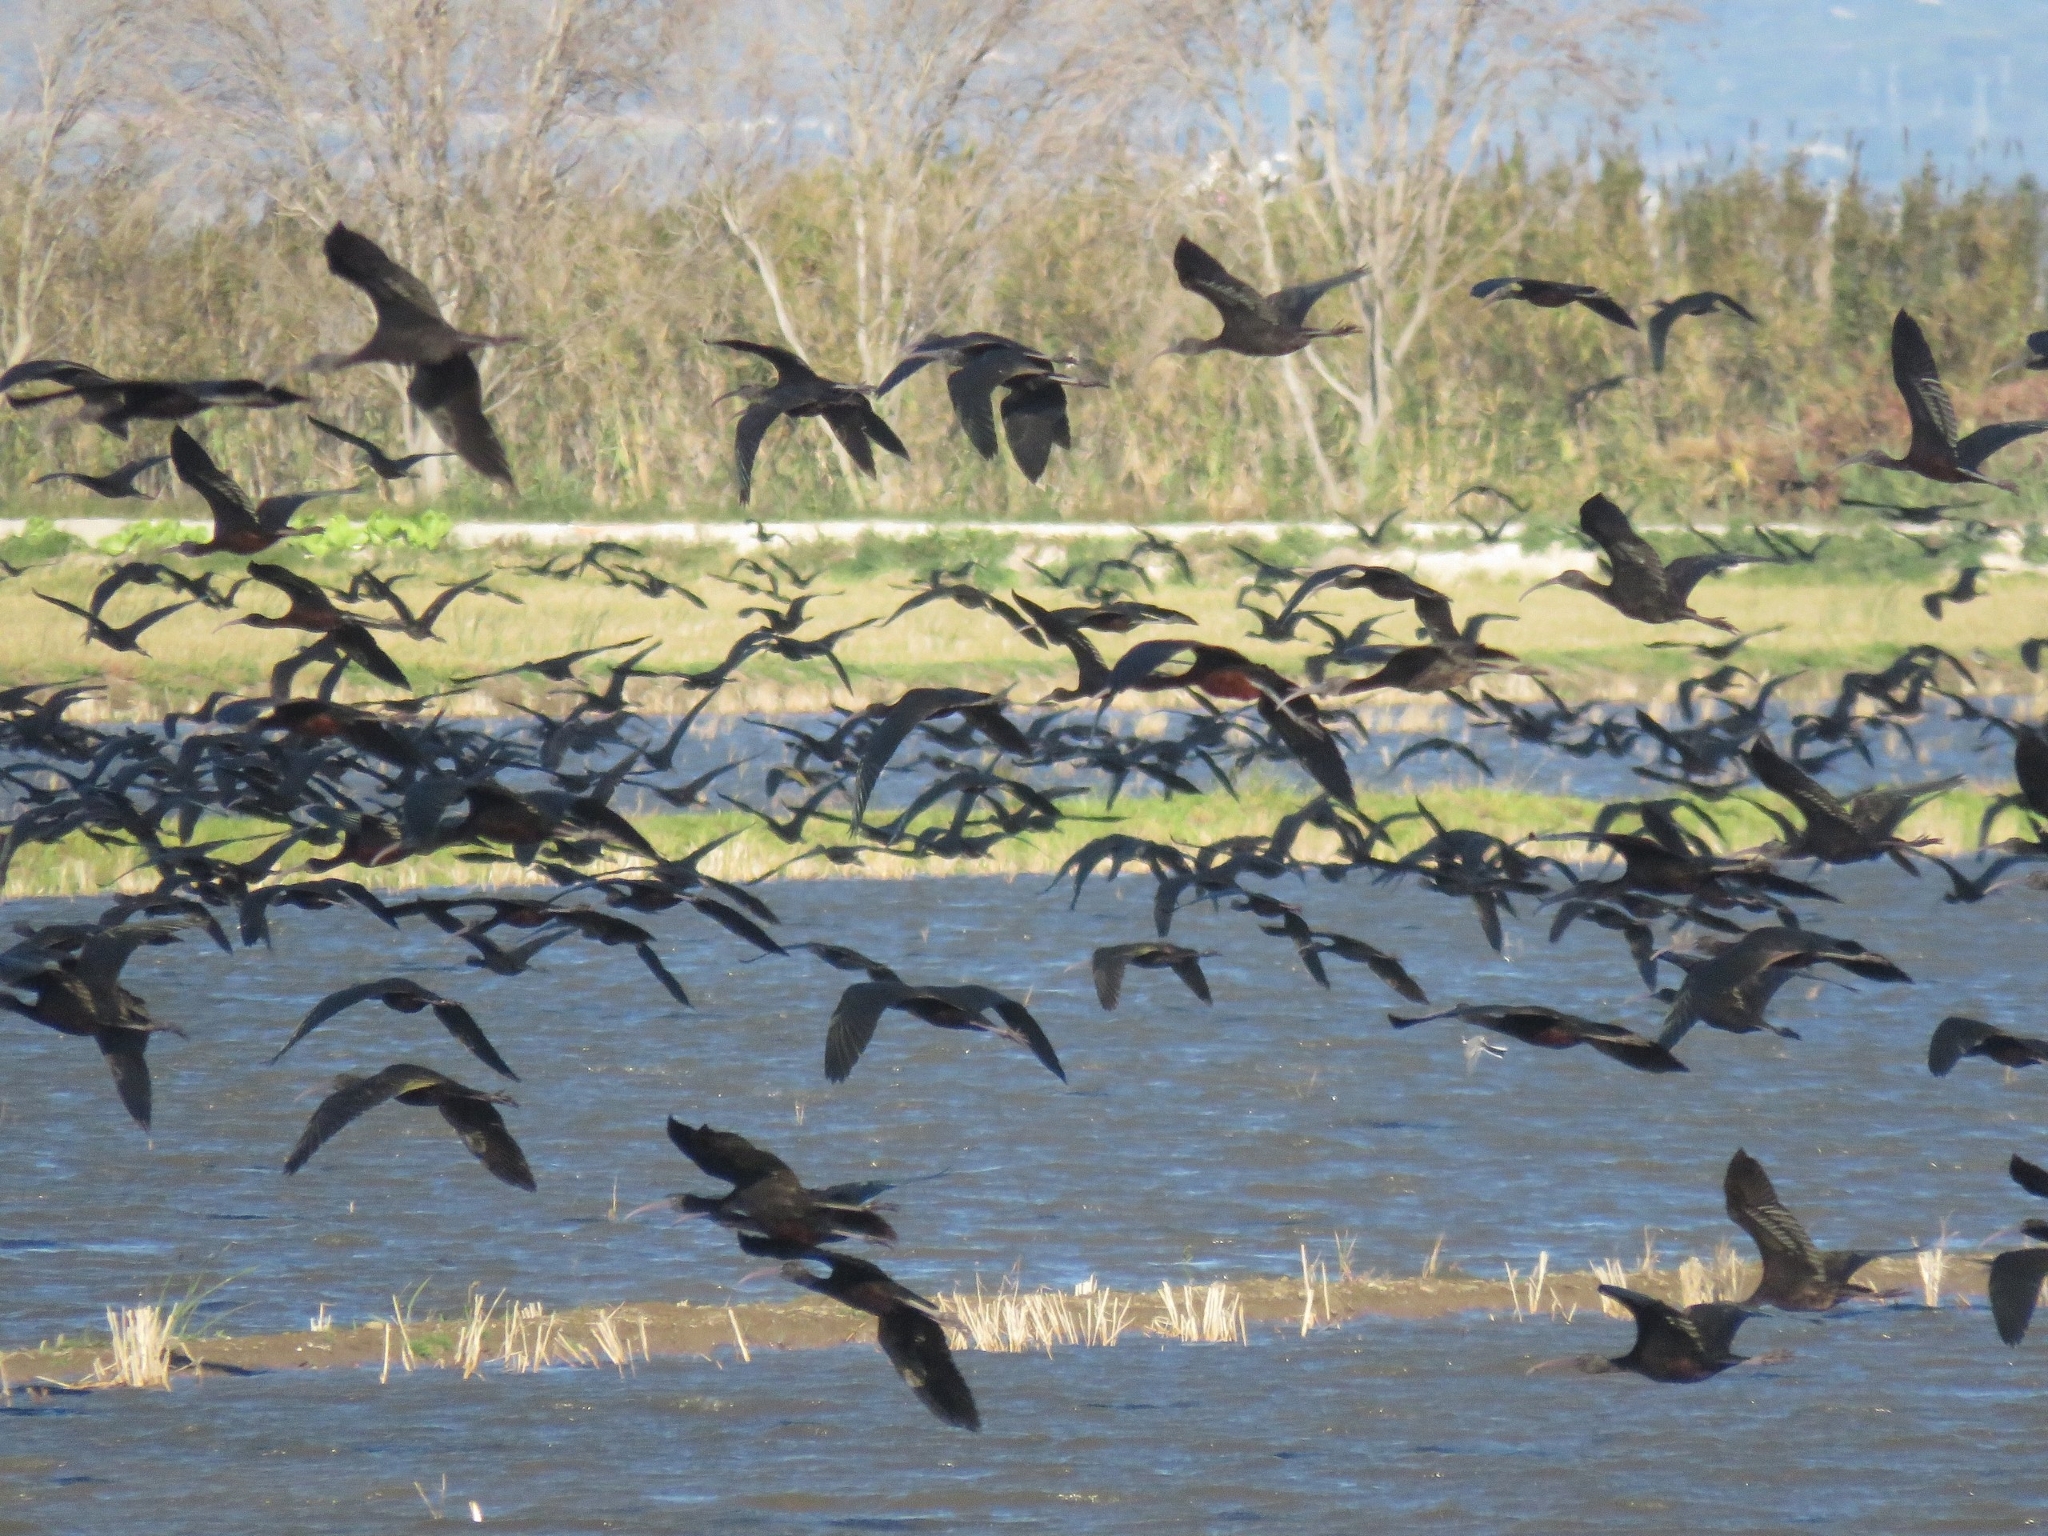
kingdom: Animalia
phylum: Chordata
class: Aves
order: Pelecaniformes
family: Threskiornithidae
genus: Plegadis
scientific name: Plegadis falcinellus
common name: Glossy ibis
